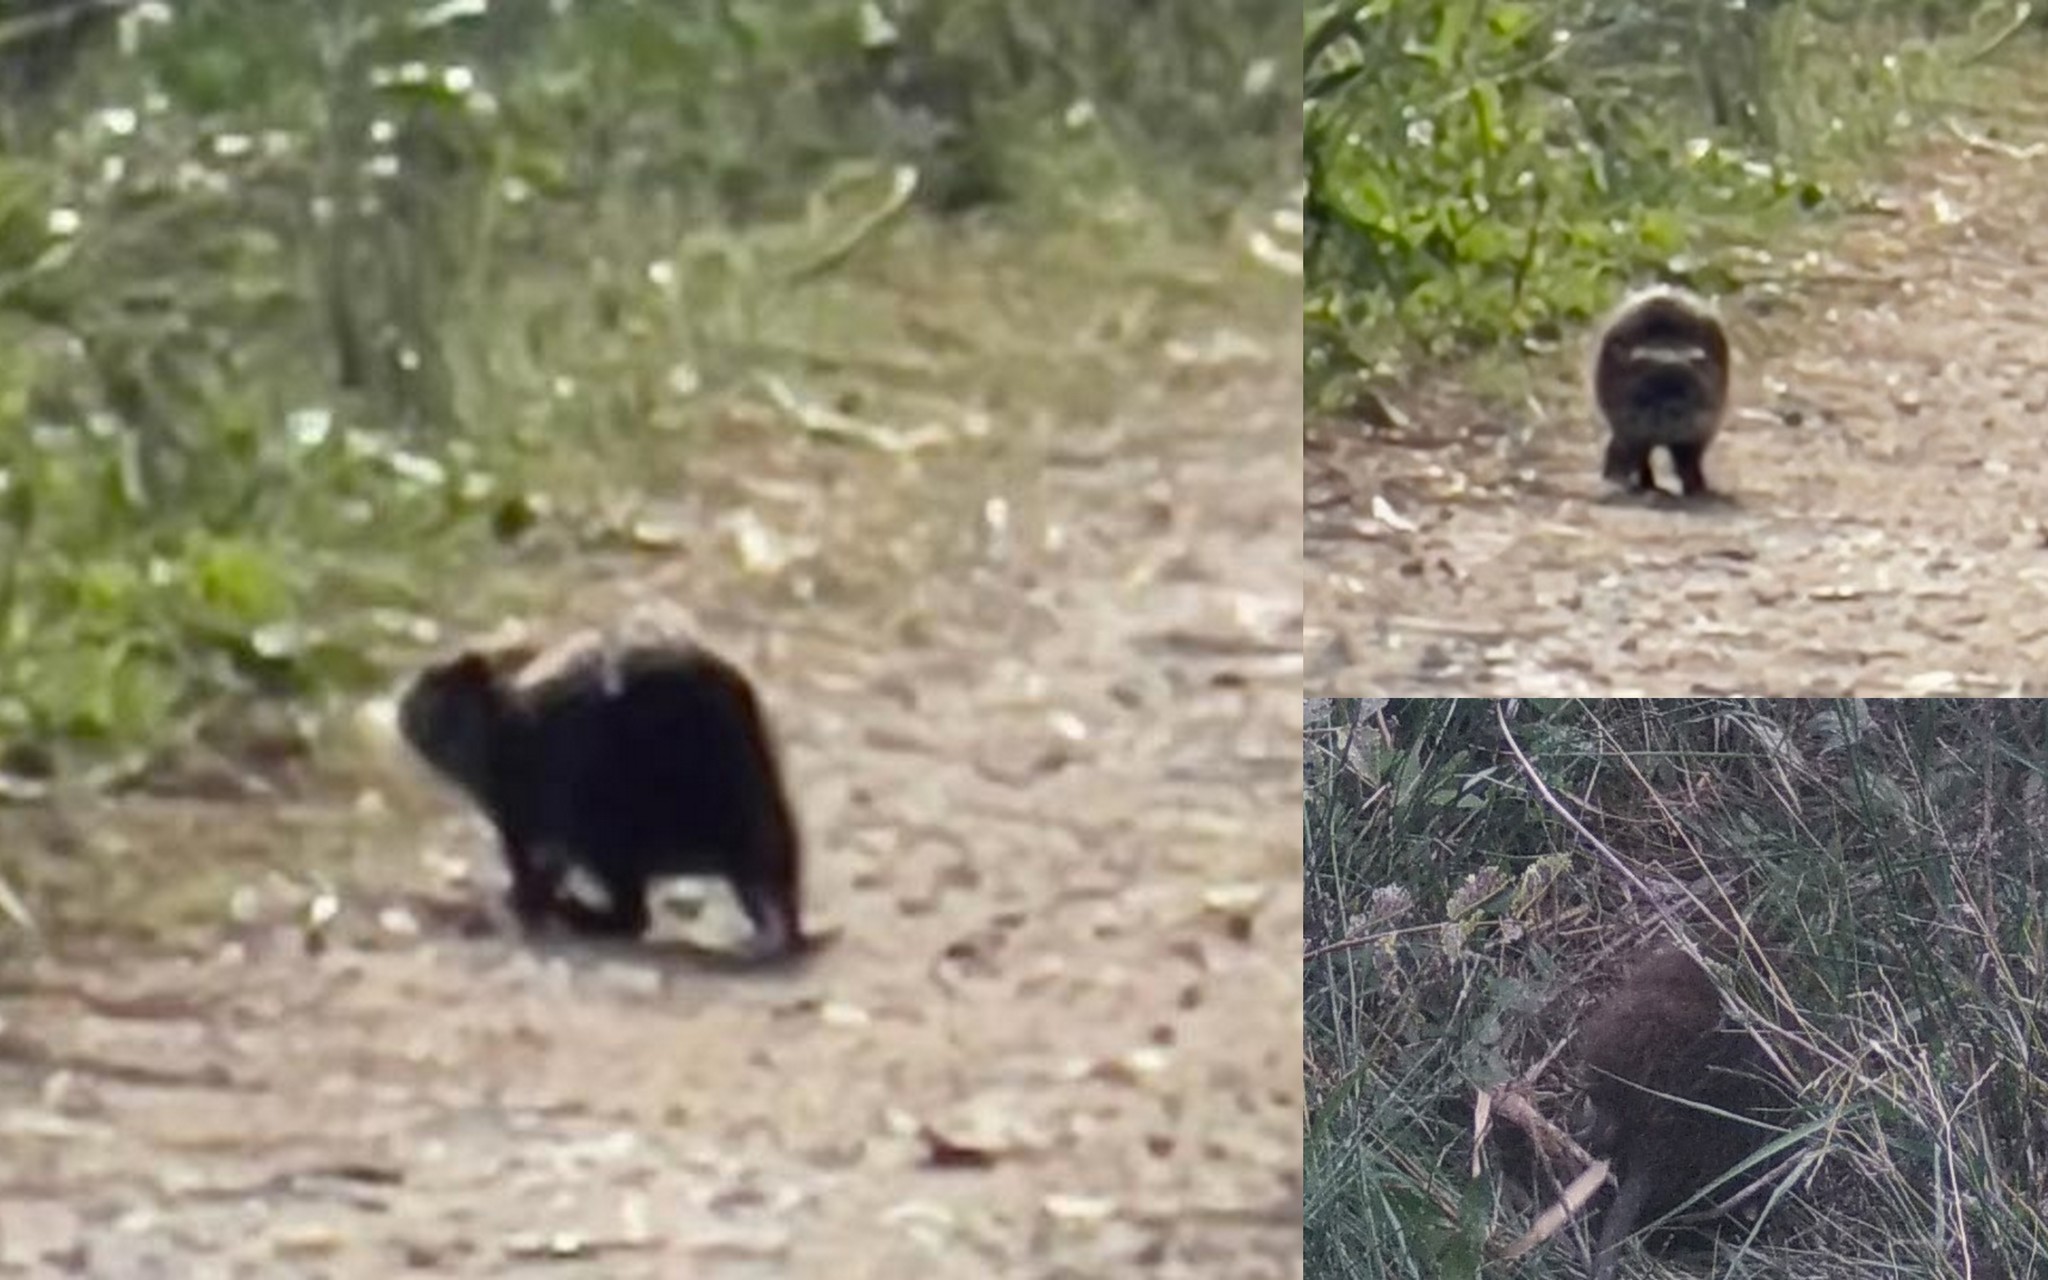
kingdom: Animalia
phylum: Chordata
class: Mammalia
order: Rodentia
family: Myocastoridae
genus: Myocastor
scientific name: Myocastor coypus
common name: Coypu
